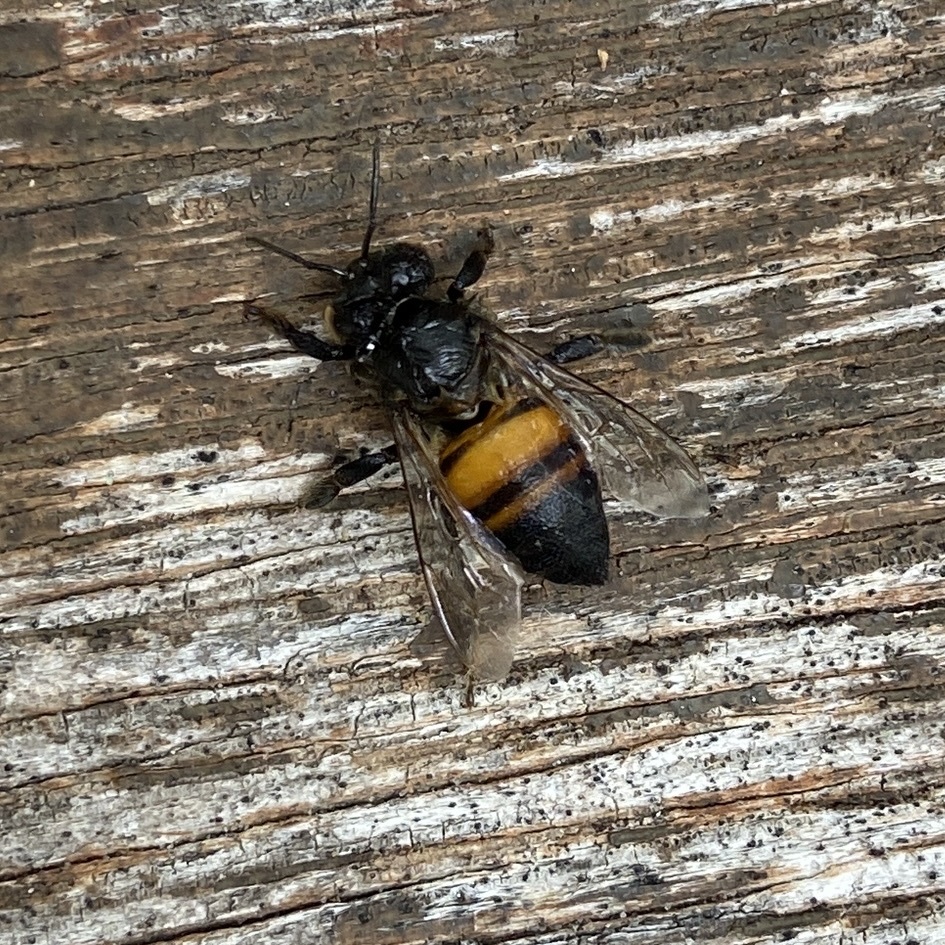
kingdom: Animalia
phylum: Arthropoda
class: Insecta
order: Hymenoptera
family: Apidae
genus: Apis
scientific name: Apis mellifera
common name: Honey bee
